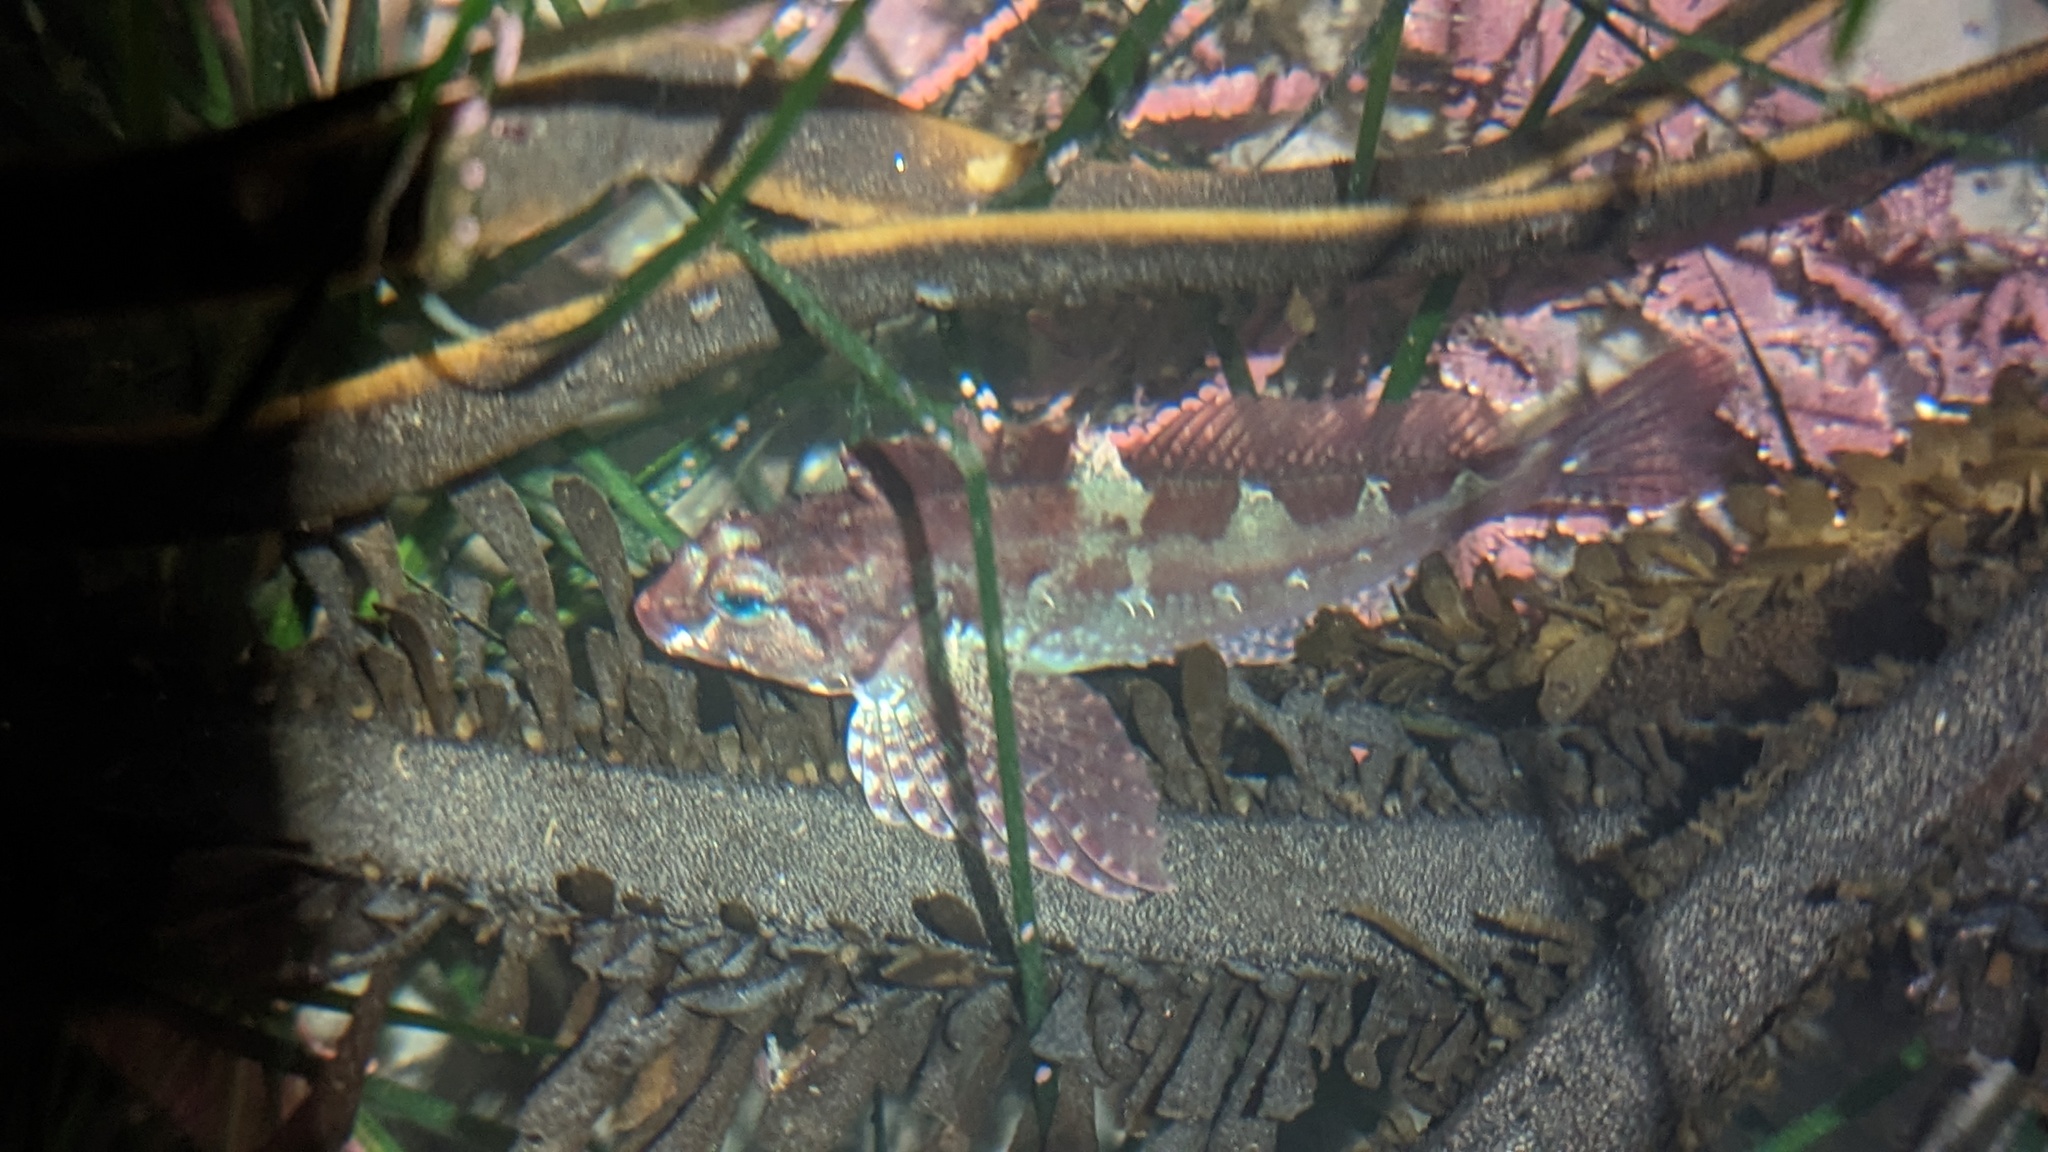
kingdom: Animalia
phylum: Chordata
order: Scorpaeniformes
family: Cottidae
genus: Oligocottus
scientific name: Oligocottus snyderi
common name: Fluffy sculpin
